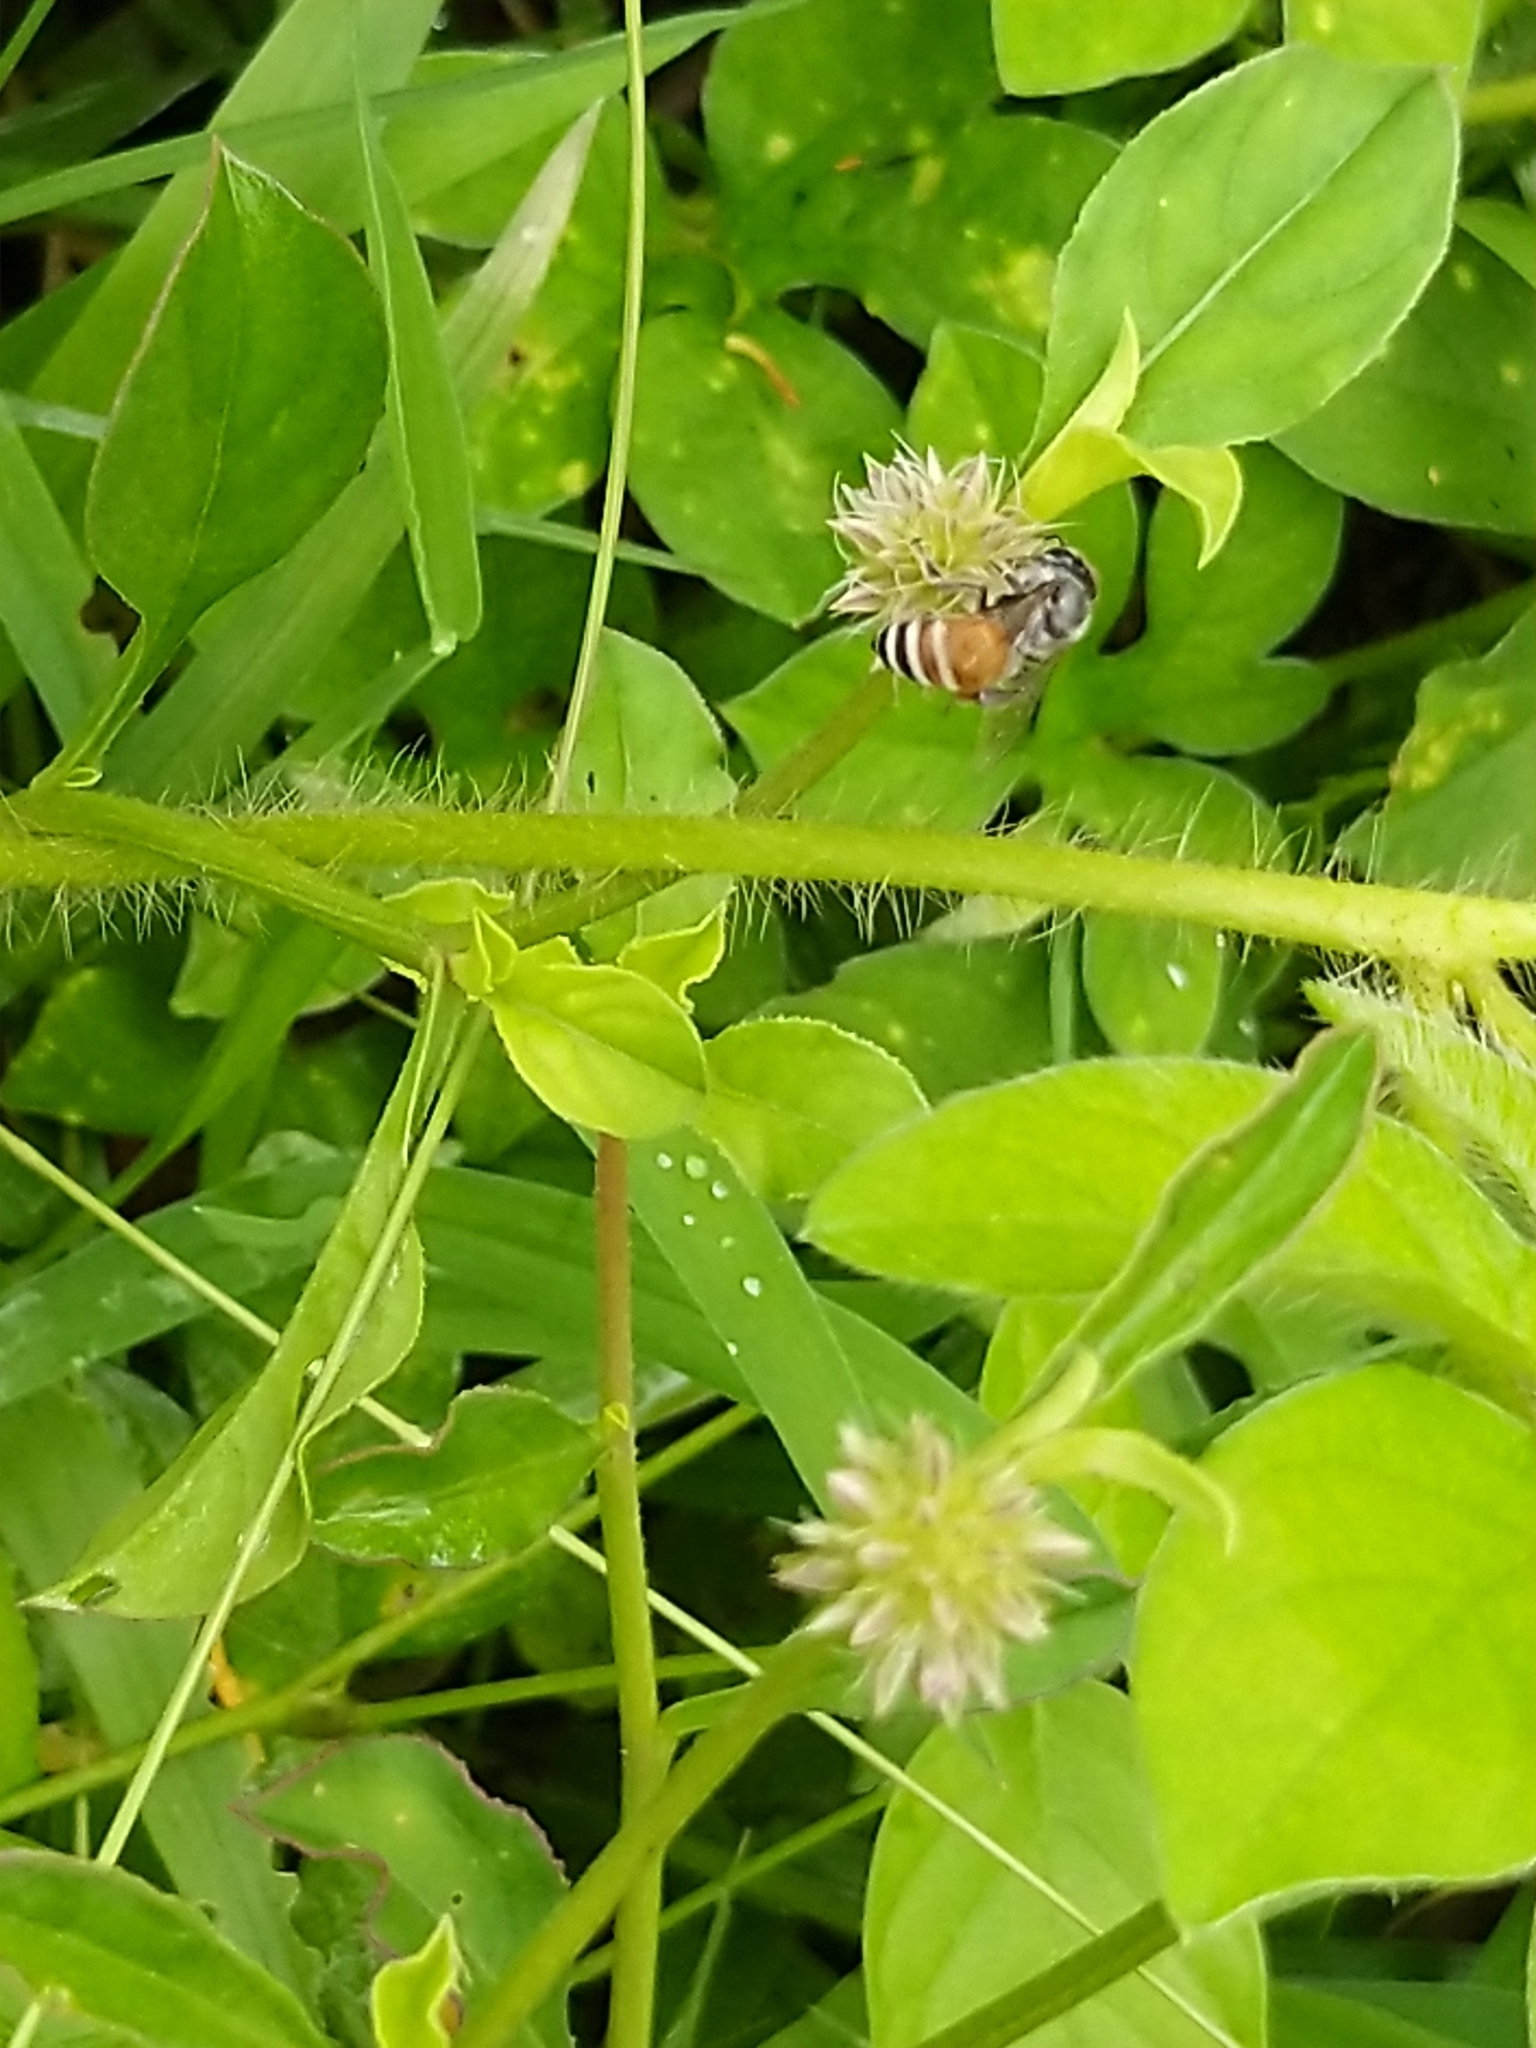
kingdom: Animalia
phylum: Arthropoda
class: Insecta
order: Hymenoptera
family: Apidae
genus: Apis
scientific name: Apis florea
